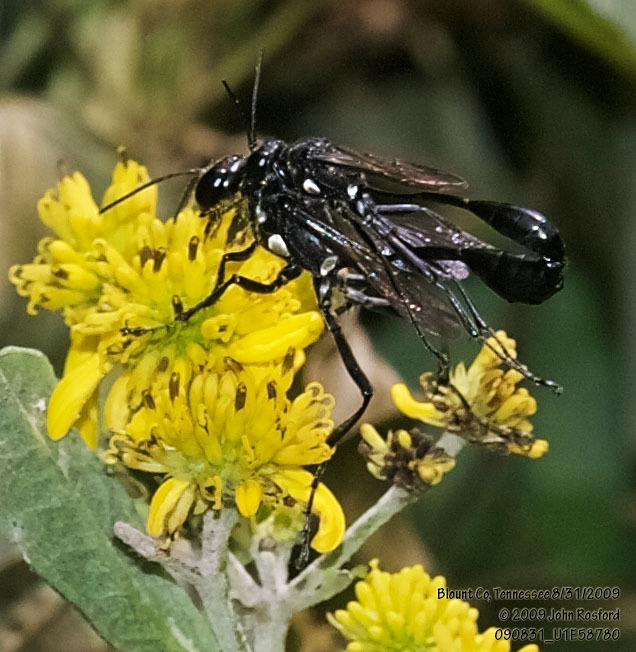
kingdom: Animalia
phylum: Arthropoda
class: Insecta
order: Hymenoptera
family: Sphecidae
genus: Eremnophila
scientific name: Eremnophila aureonotata
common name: Gold-marked thread-waisted wasp
